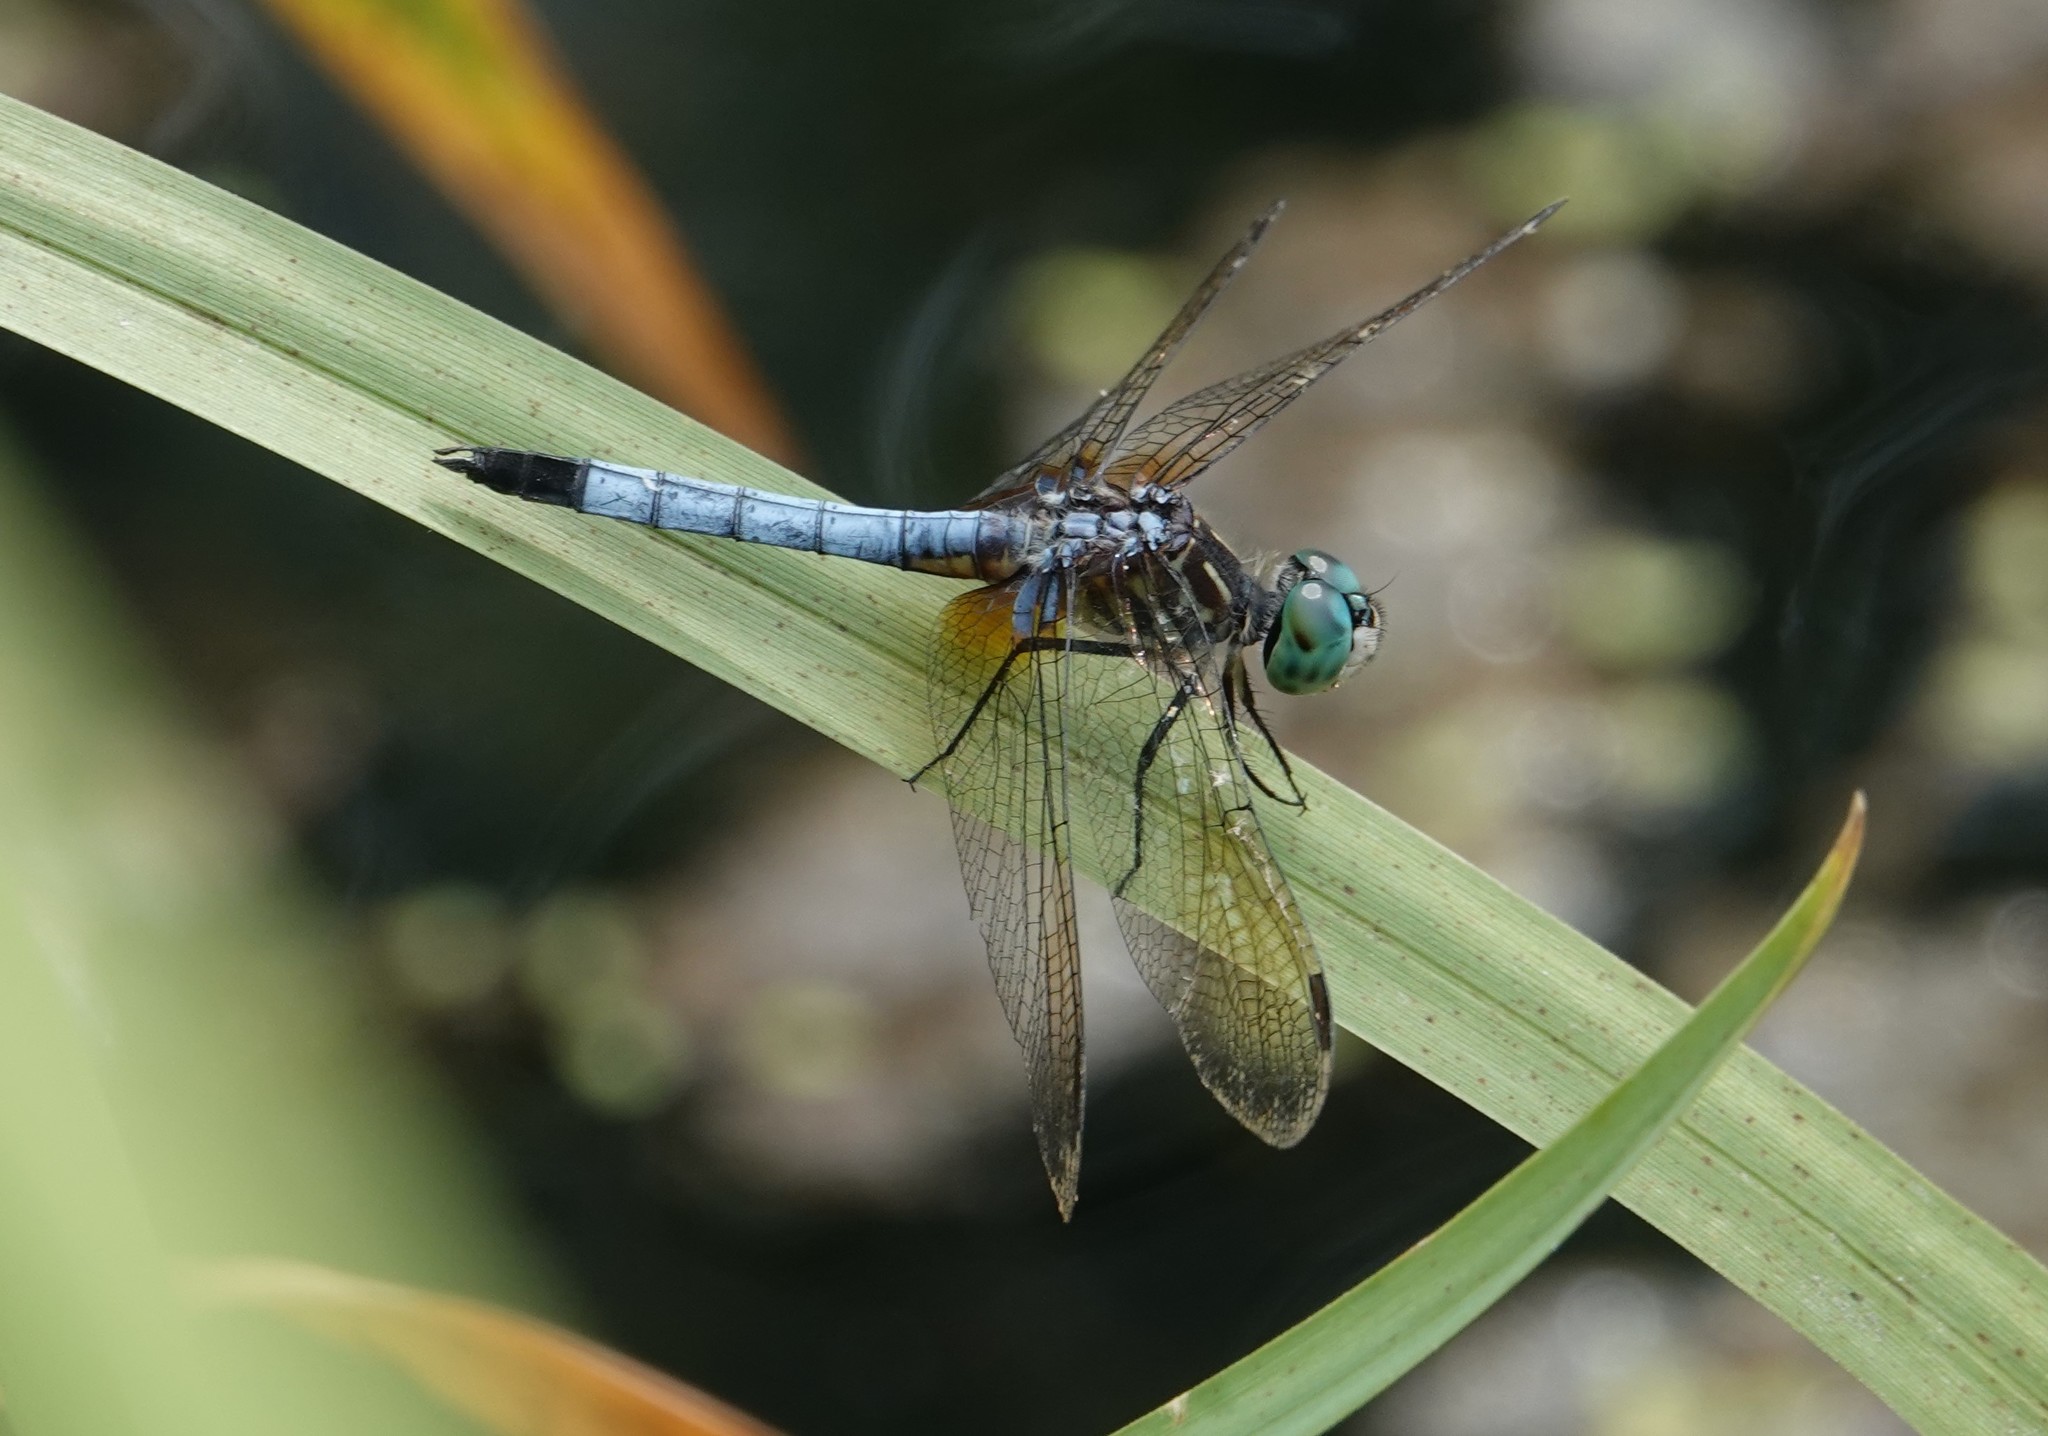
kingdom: Animalia
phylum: Arthropoda
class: Insecta
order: Odonata
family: Libellulidae
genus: Pachydiplax
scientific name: Pachydiplax longipennis
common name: Blue dasher
